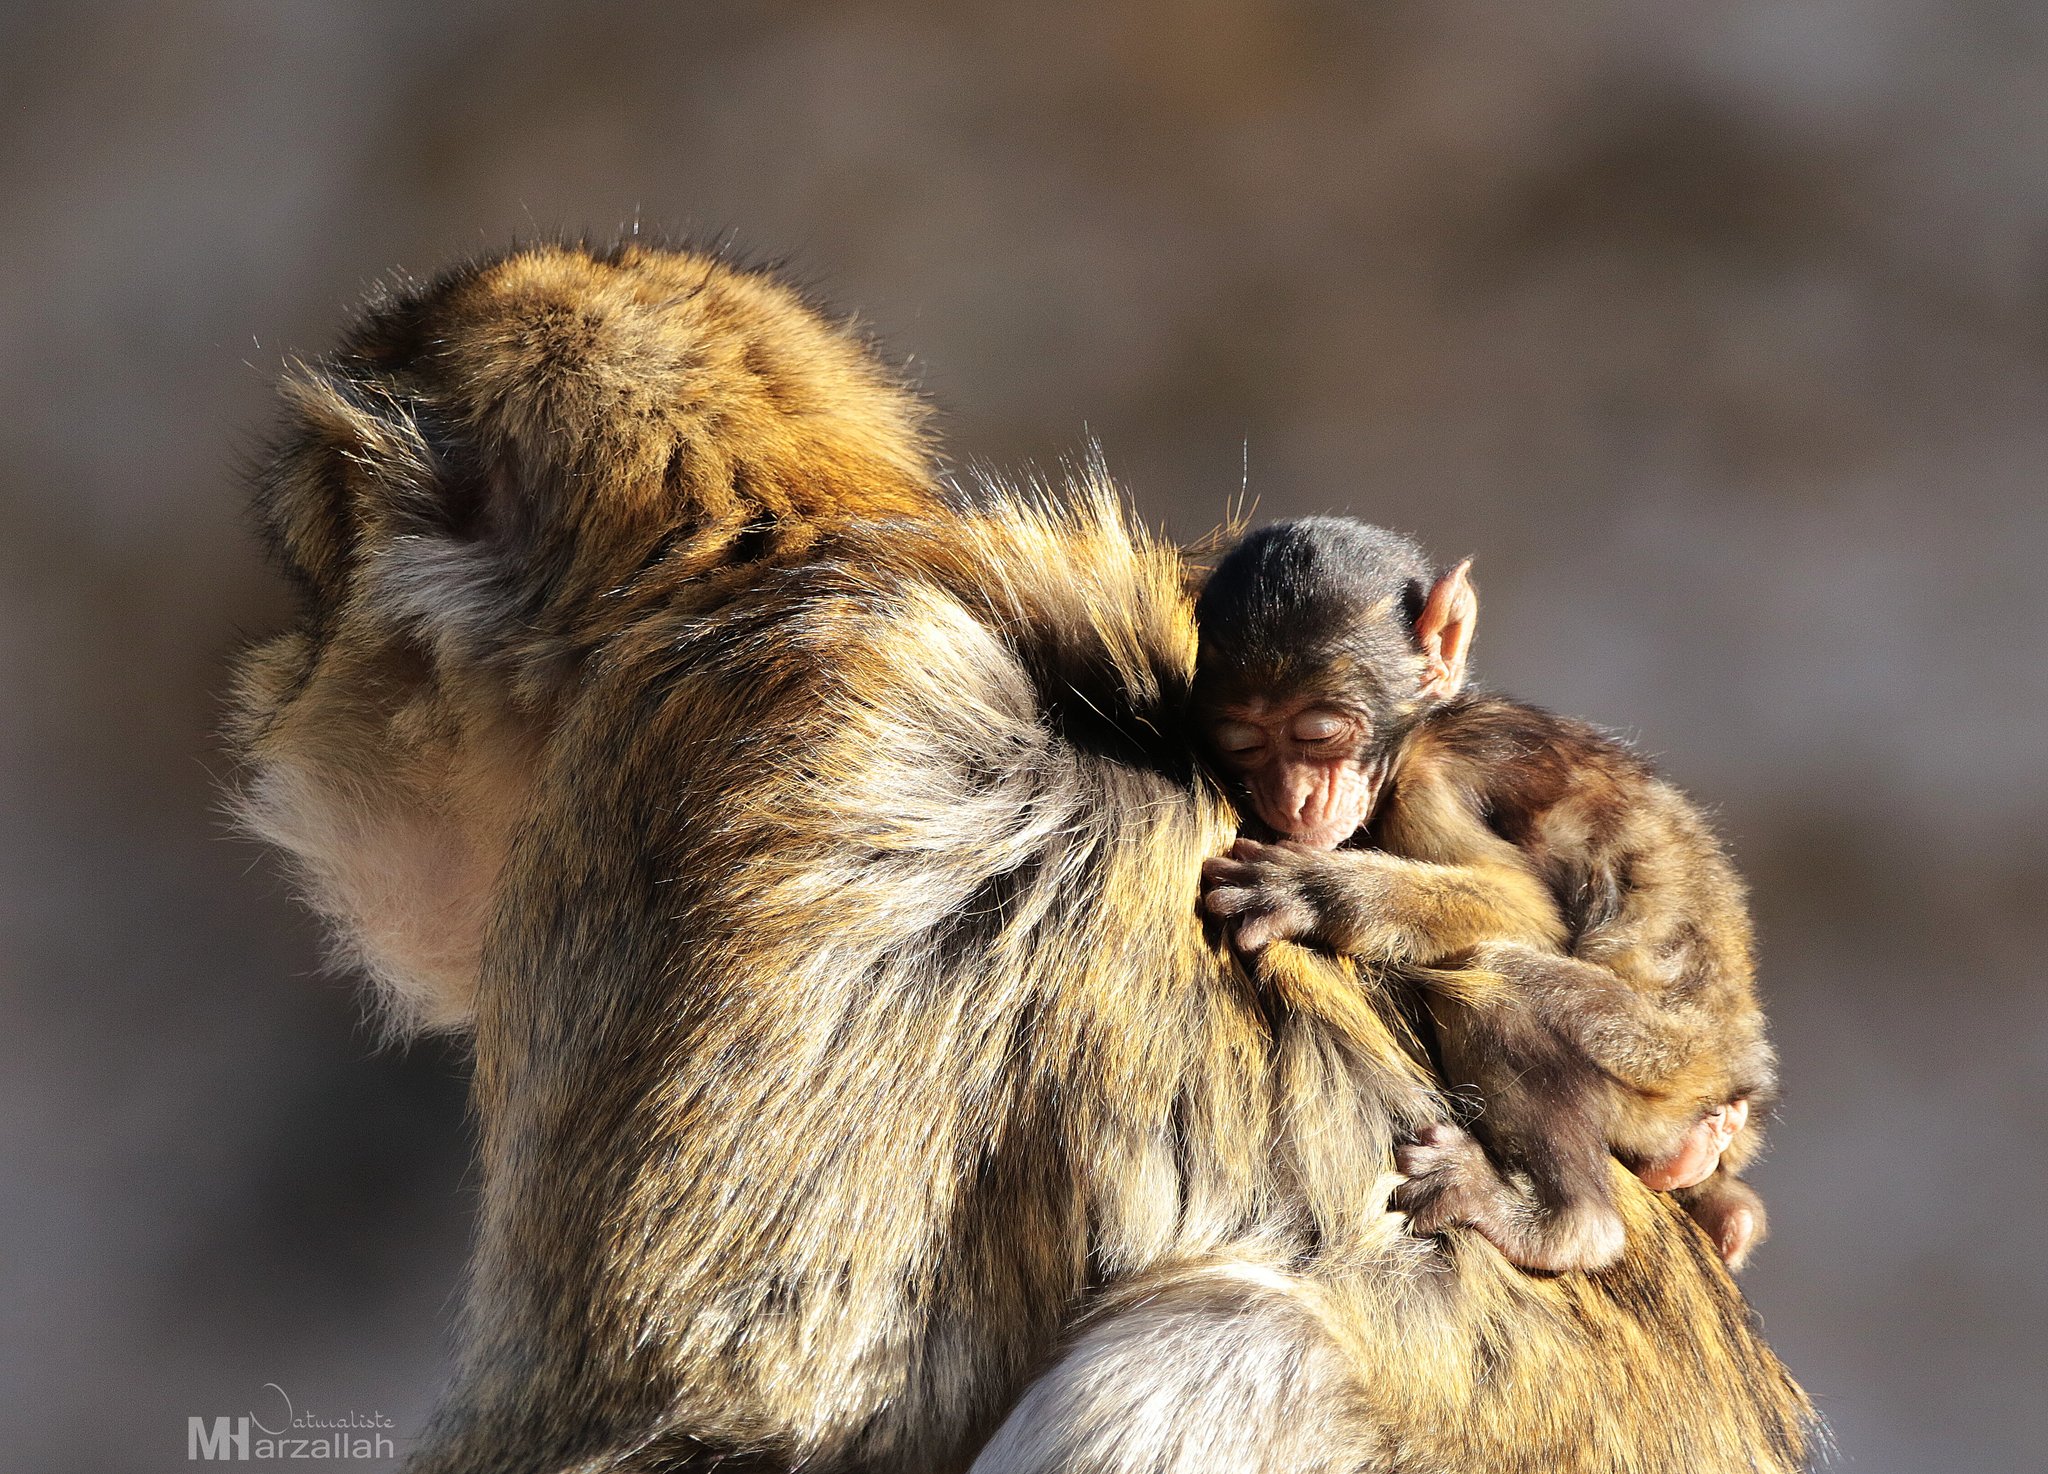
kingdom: Animalia
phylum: Chordata
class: Mammalia
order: Primates
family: Cercopithecidae
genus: Macaca
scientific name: Macaca sylvanus
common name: Barbary macaque
